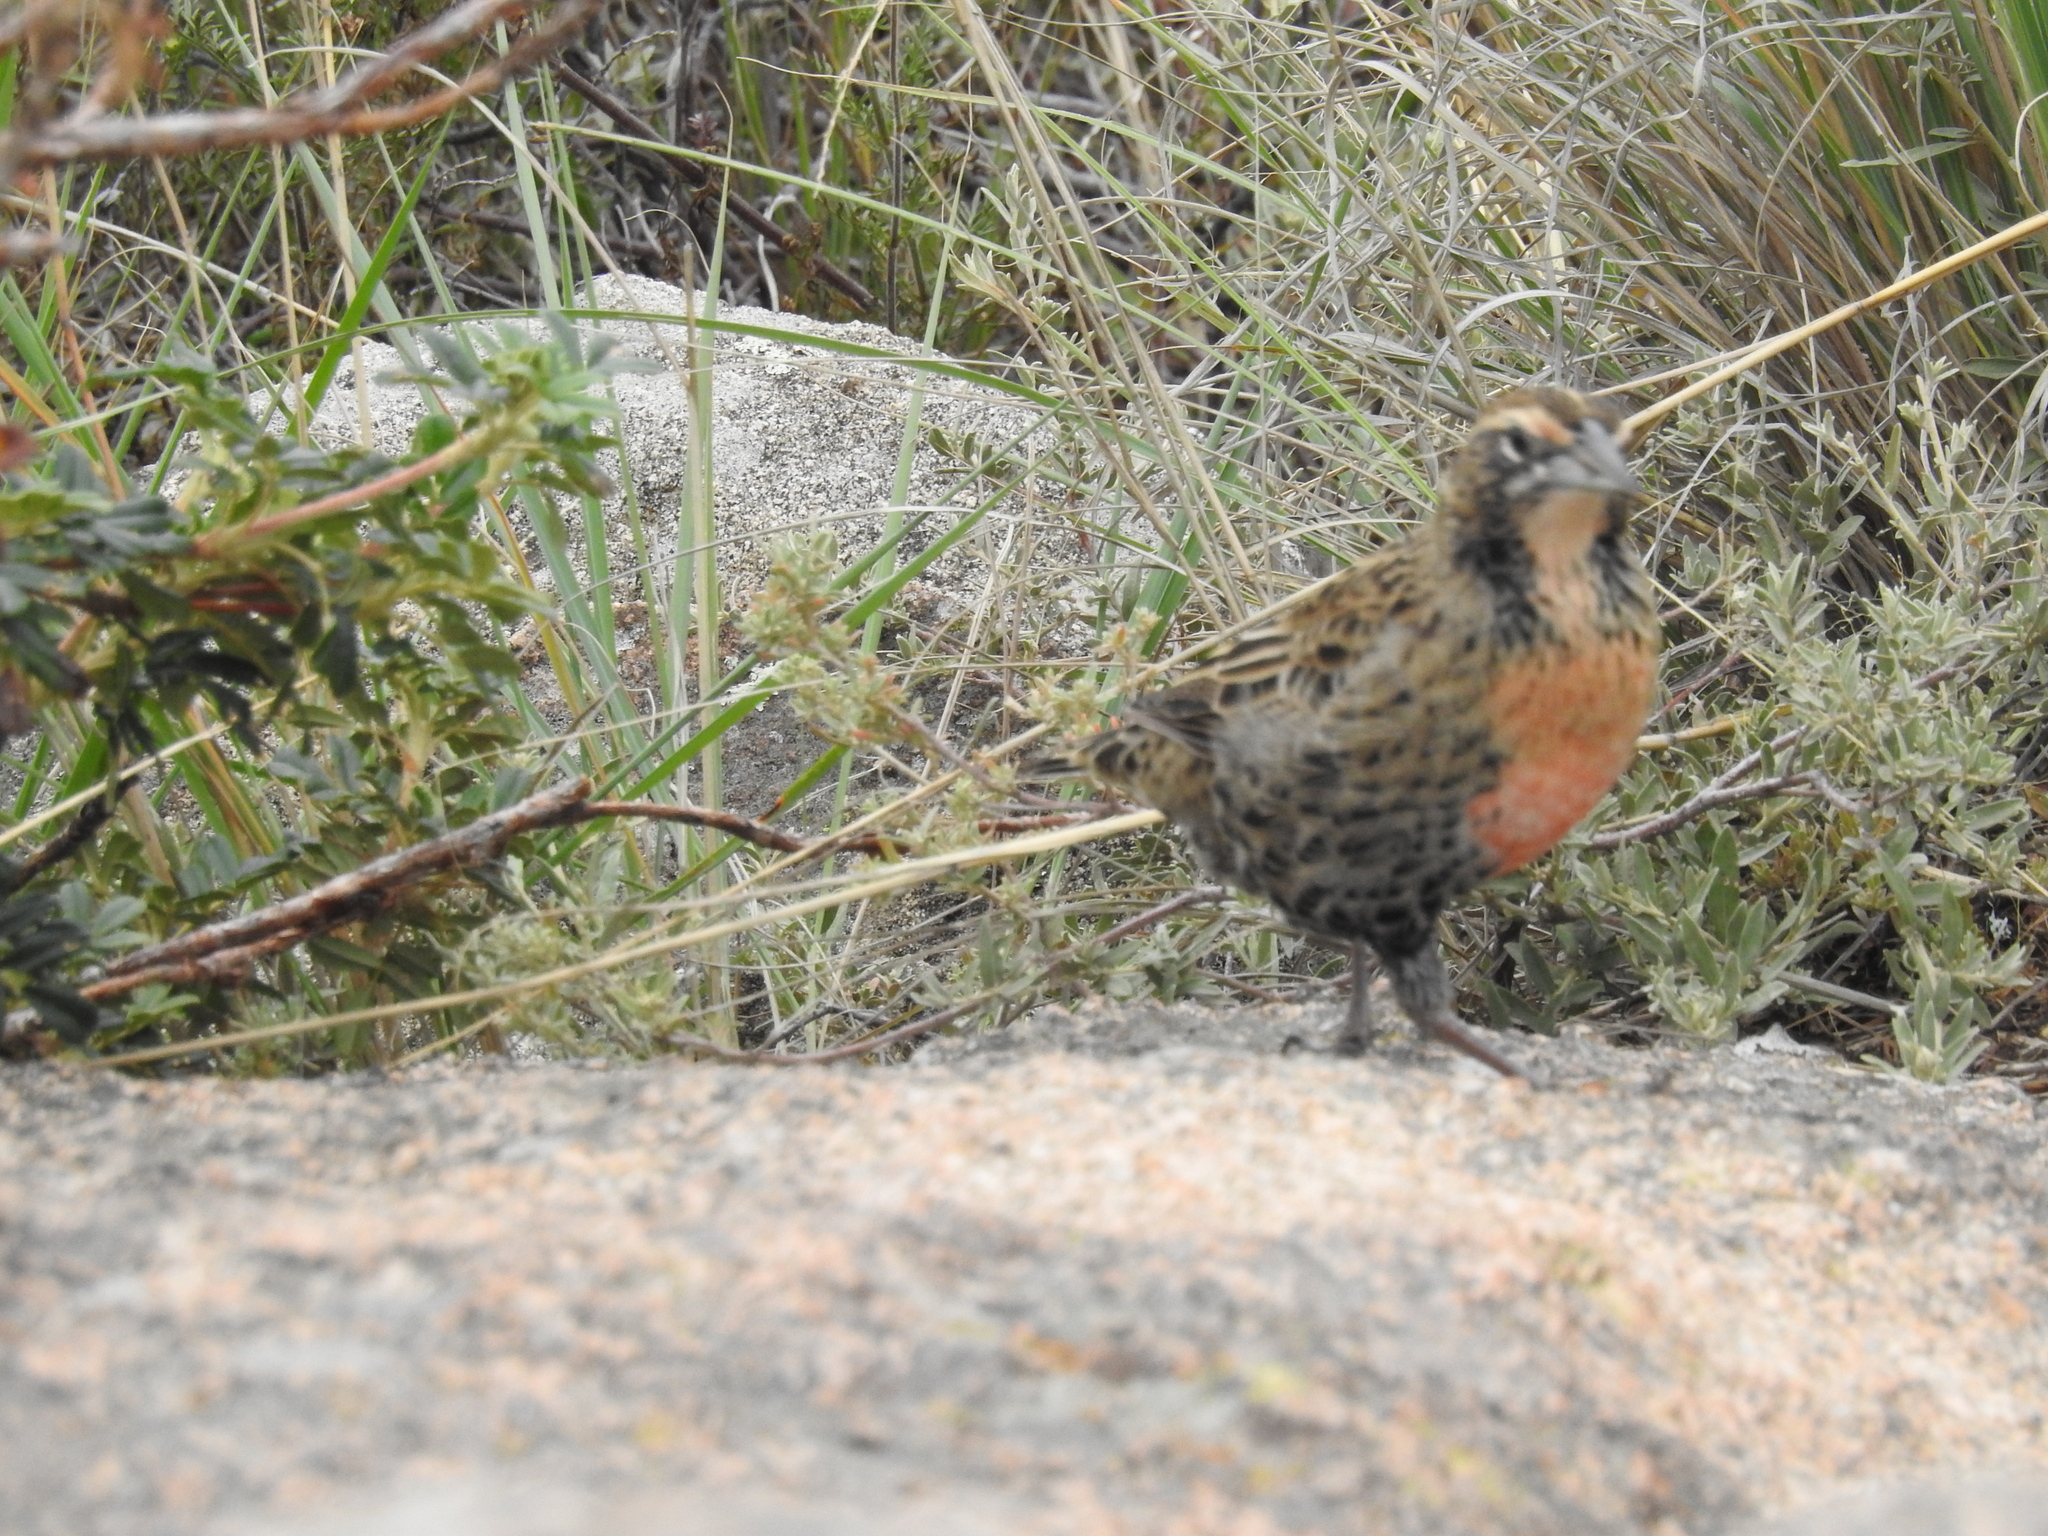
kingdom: Animalia
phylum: Chordata
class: Aves
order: Passeriformes
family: Icteridae
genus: Sturnella
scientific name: Sturnella loyca
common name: Long-tailed meadowlark
